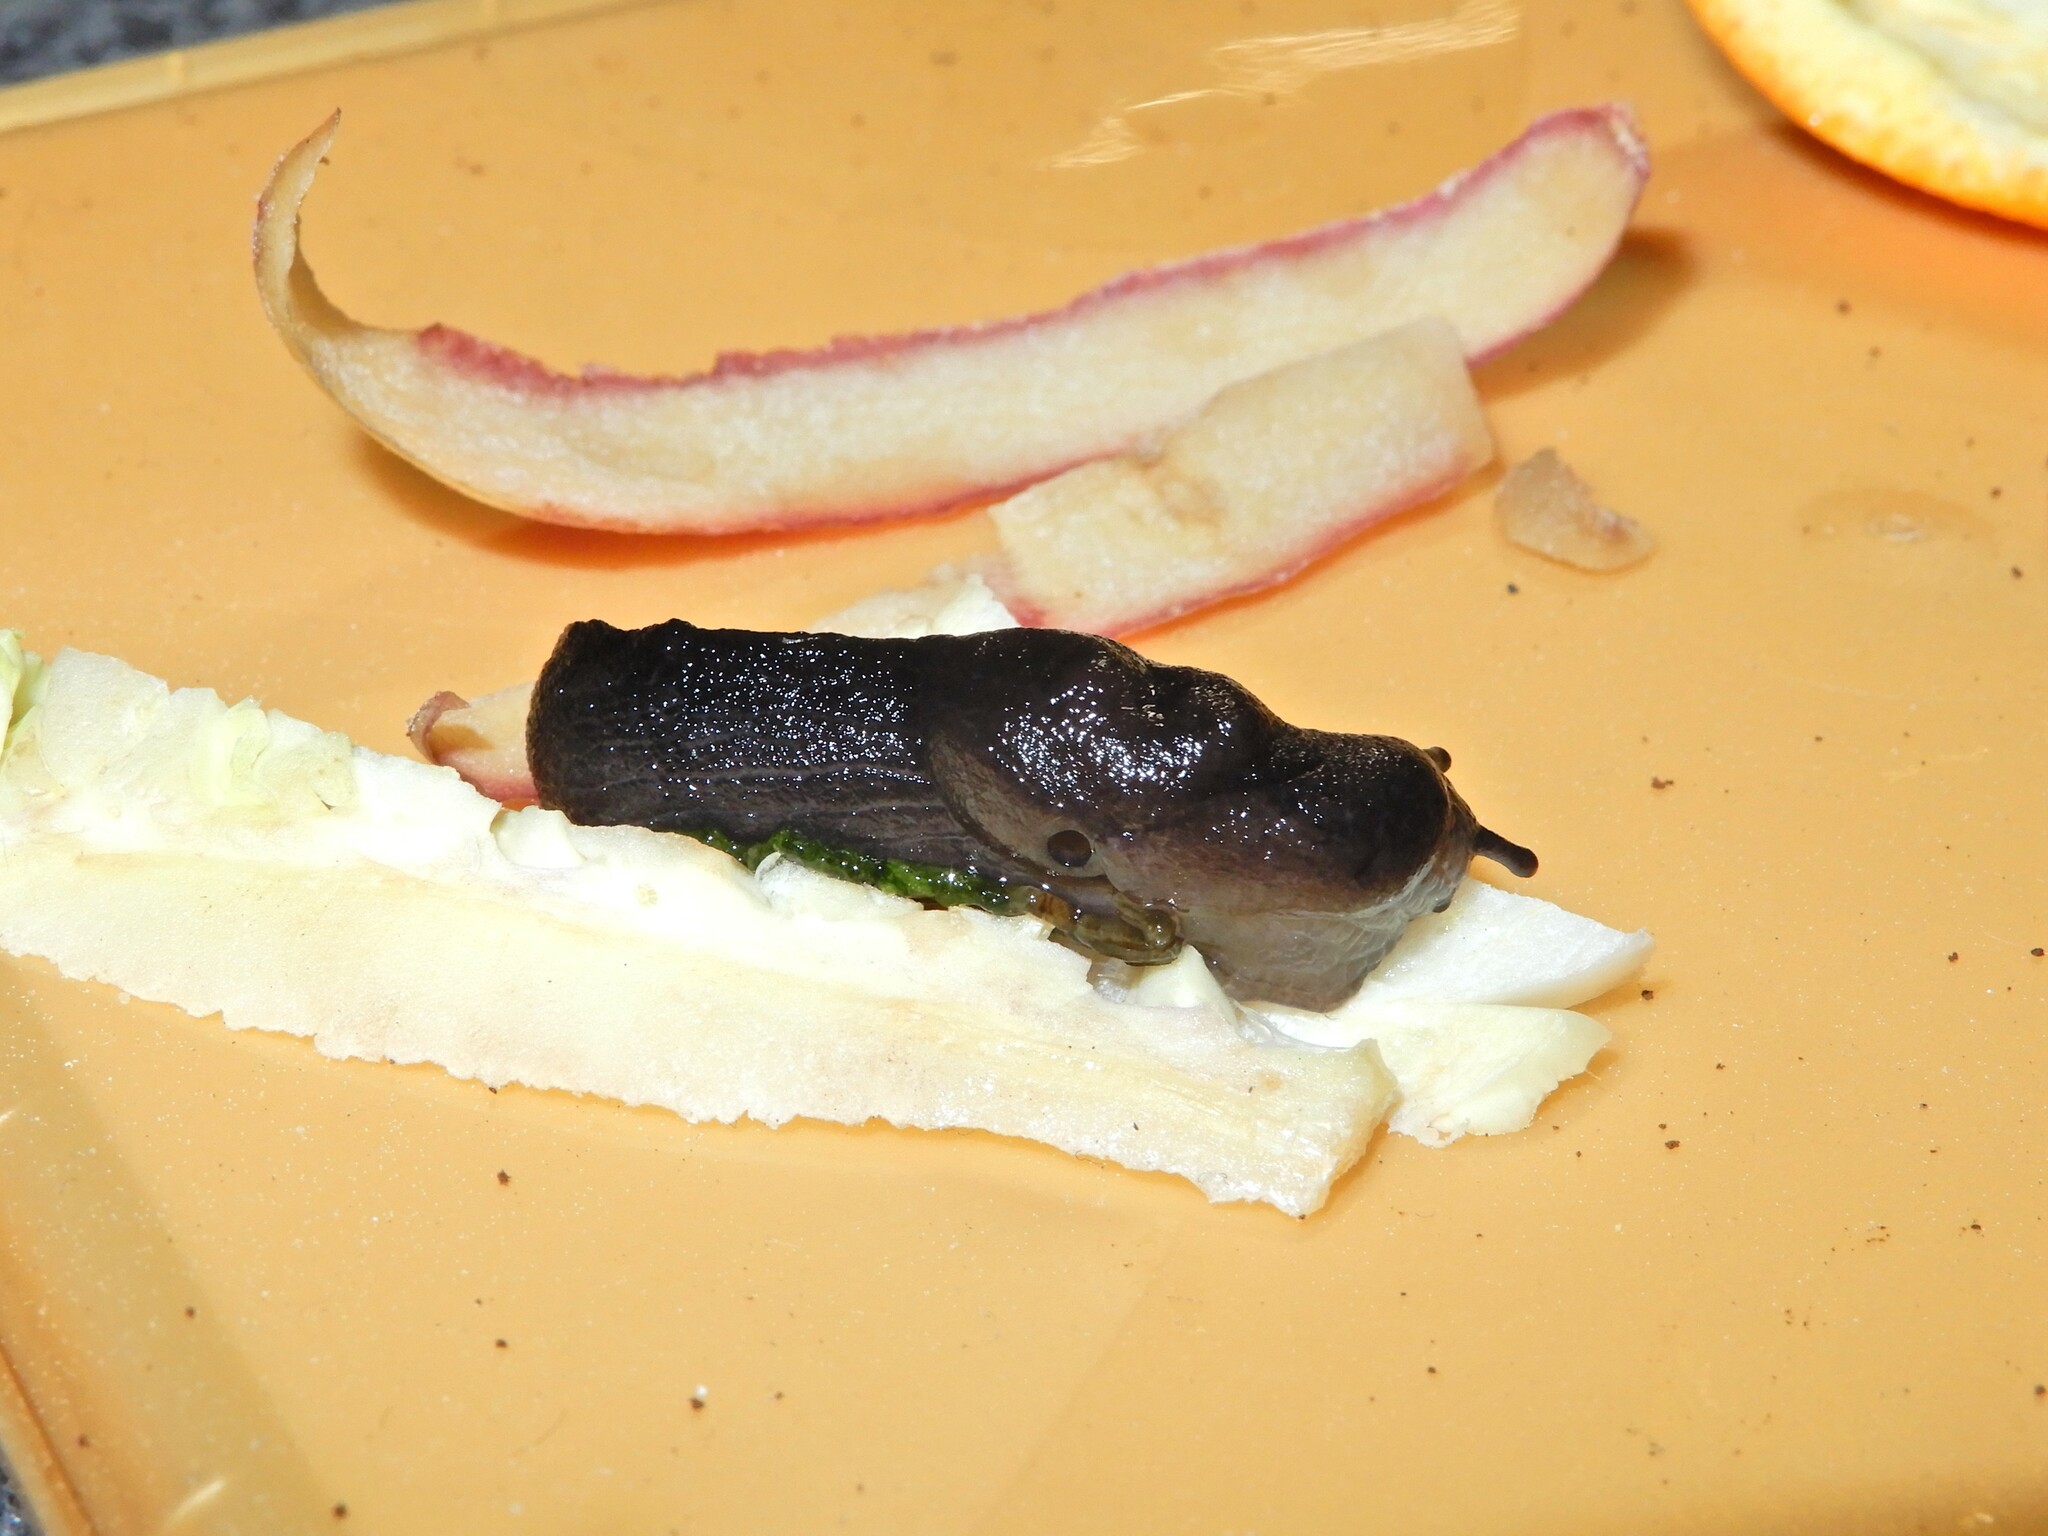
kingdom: Animalia
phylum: Mollusca
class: Gastropoda
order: Stylommatophora
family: Milacidae
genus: Milax
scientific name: Milax gagates
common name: Greenhouse slug
